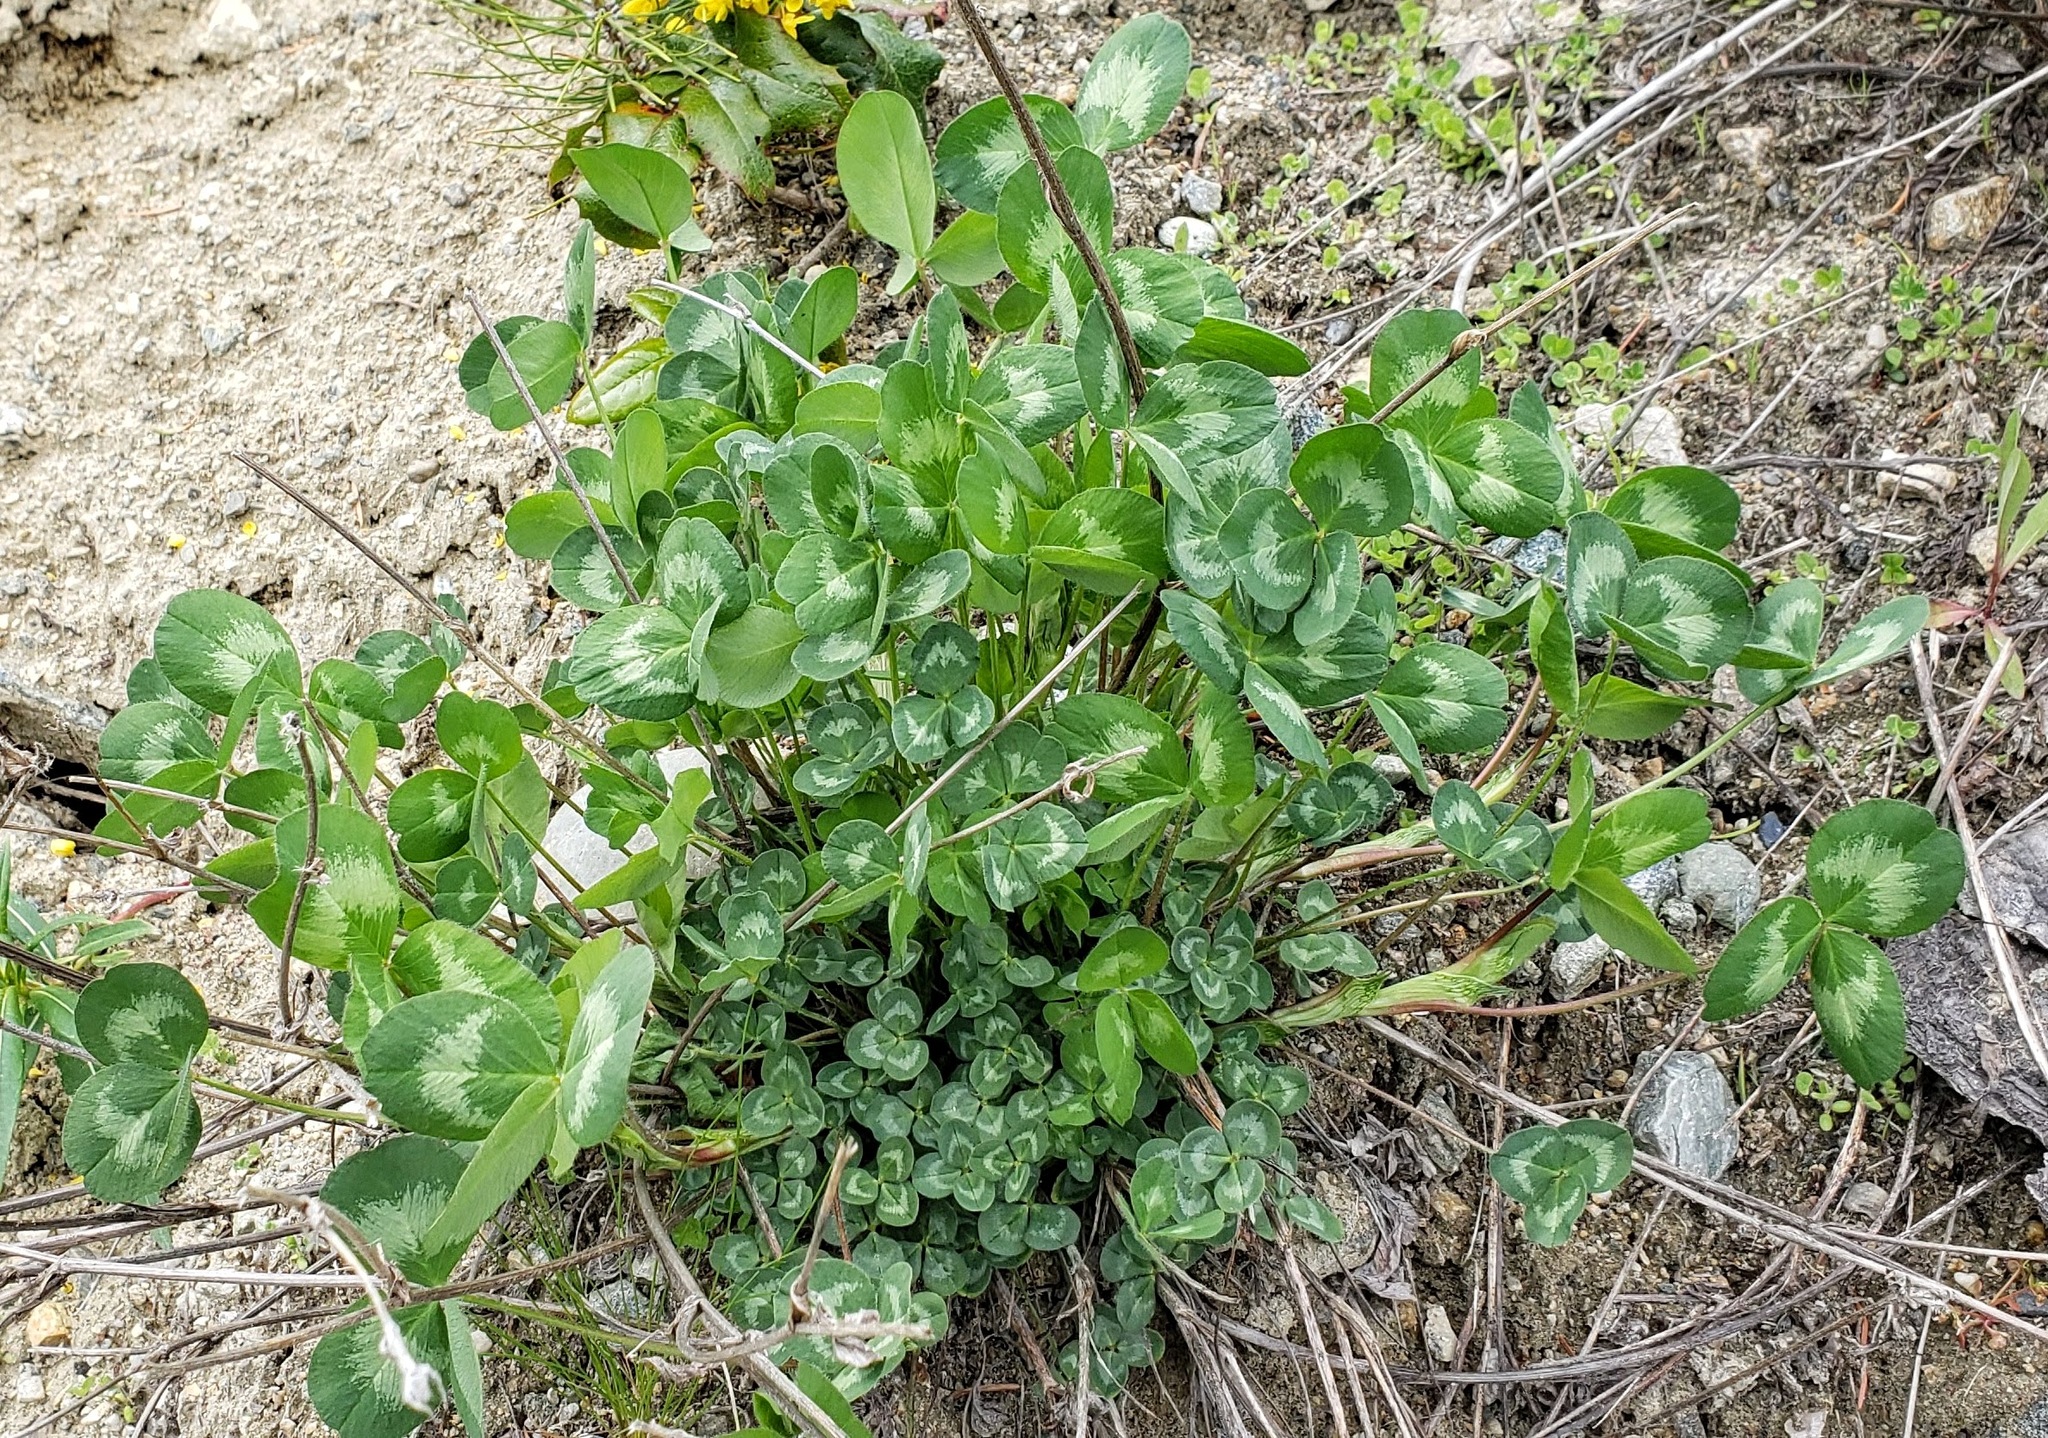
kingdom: Plantae
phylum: Tracheophyta
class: Magnoliopsida
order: Fabales
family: Fabaceae
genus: Trifolium
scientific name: Trifolium pratense
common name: Red clover
